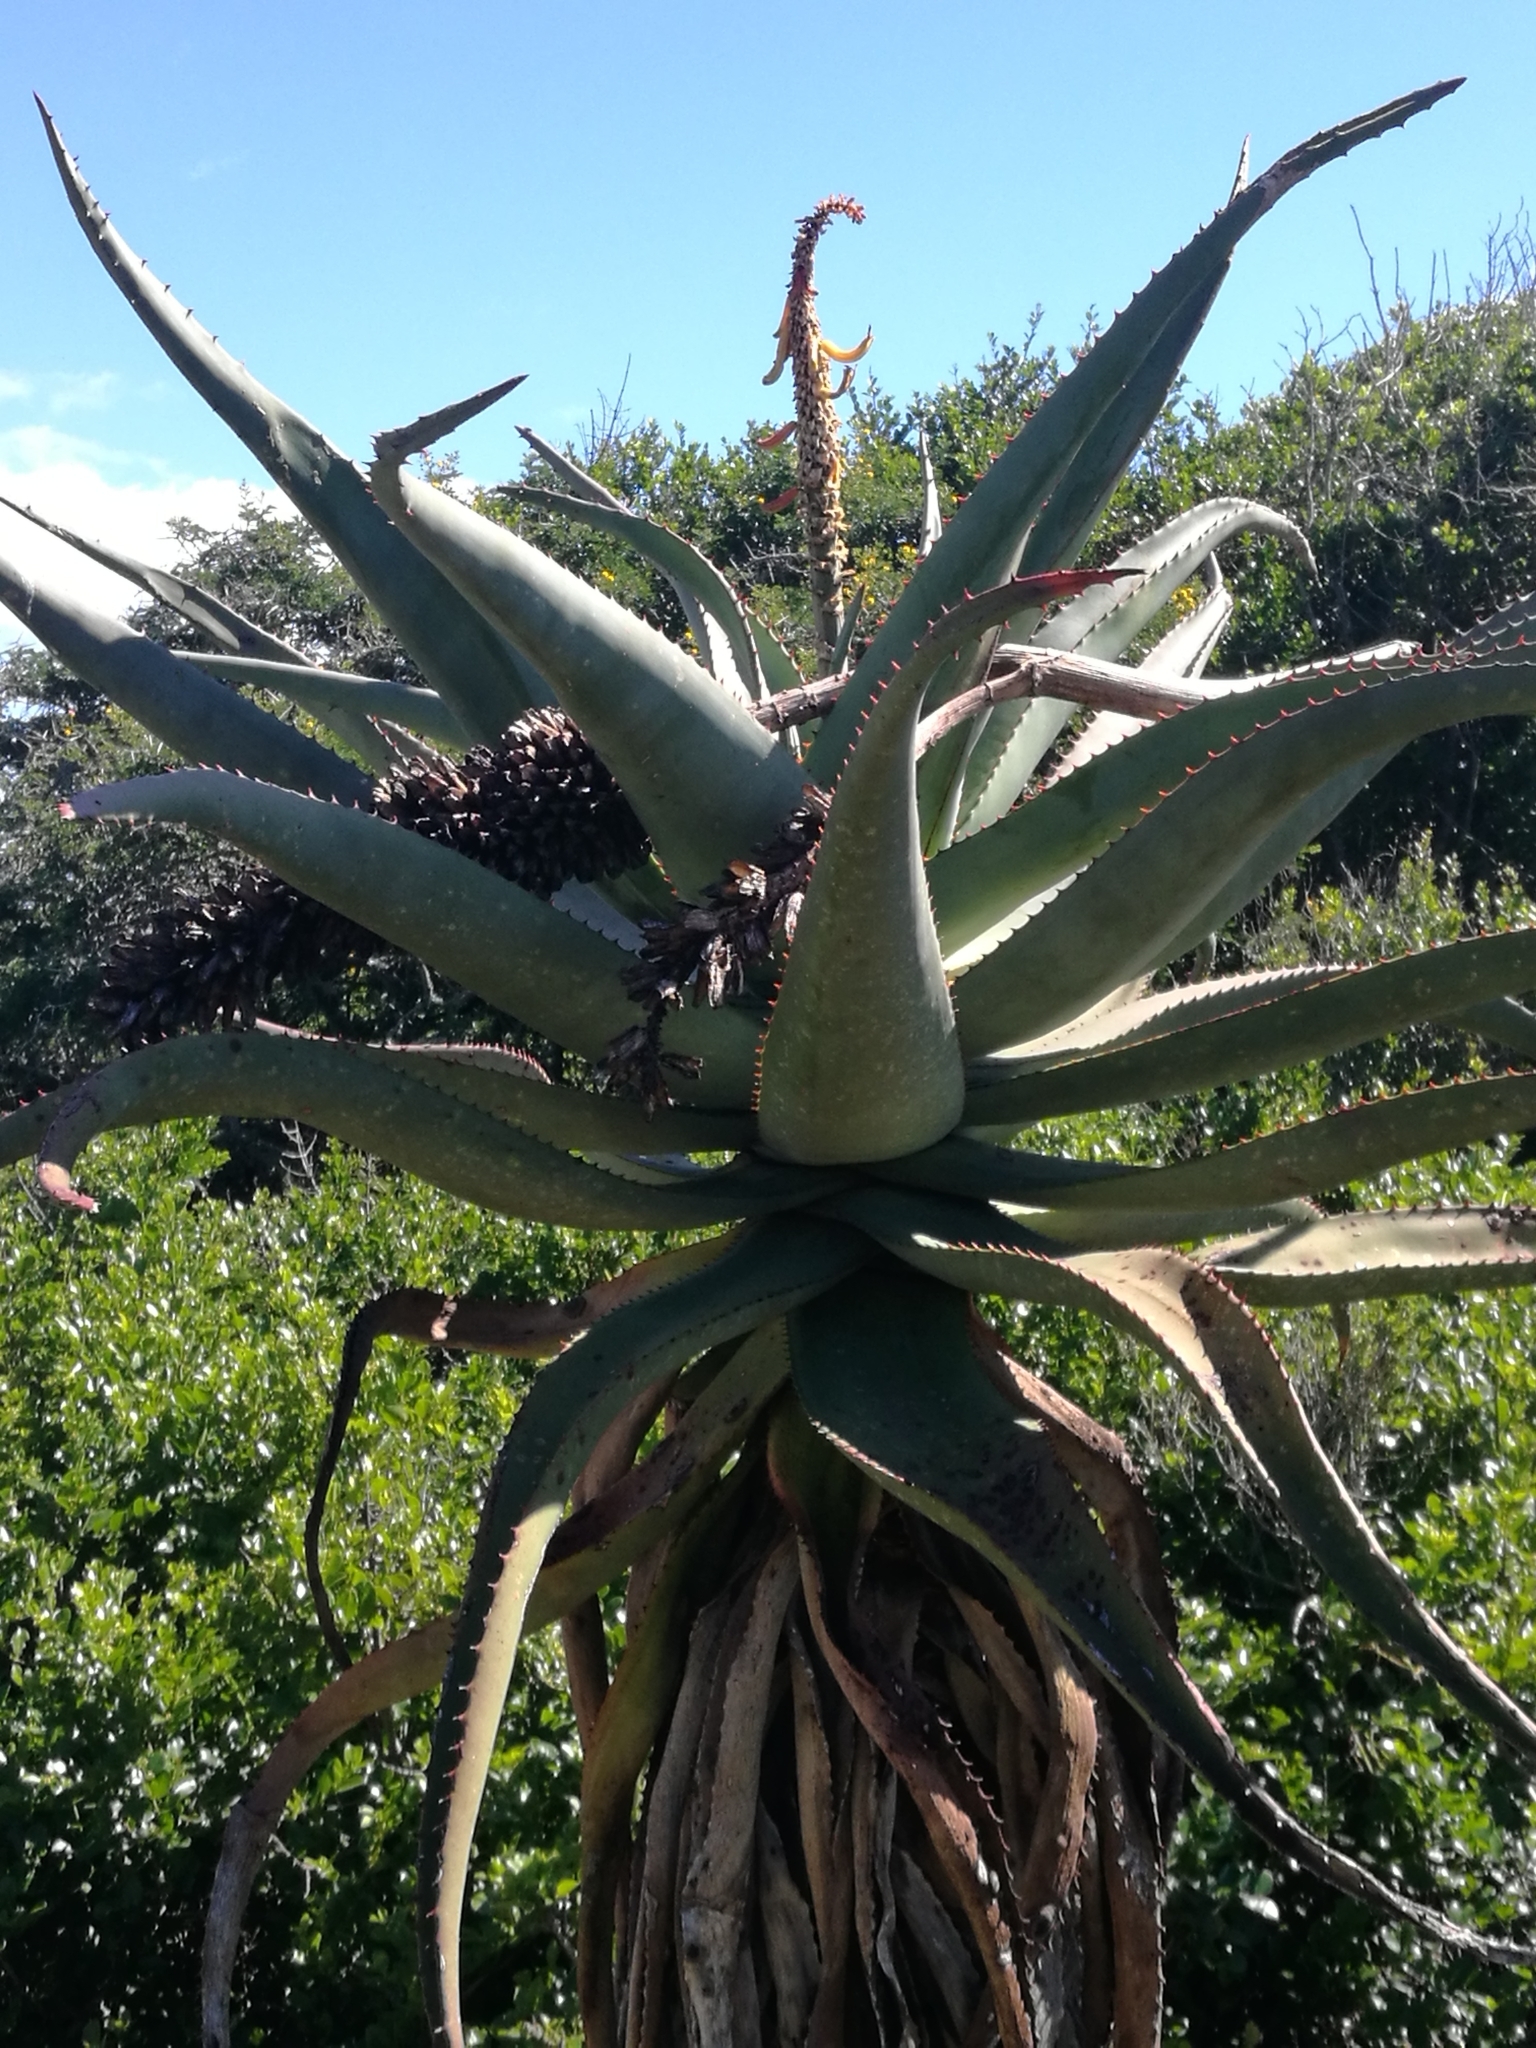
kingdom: Plantae
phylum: Tracheophyta
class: Liliopsida
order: Asparagales
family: Asphodelaceae
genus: Aloe
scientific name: Aloe africana
